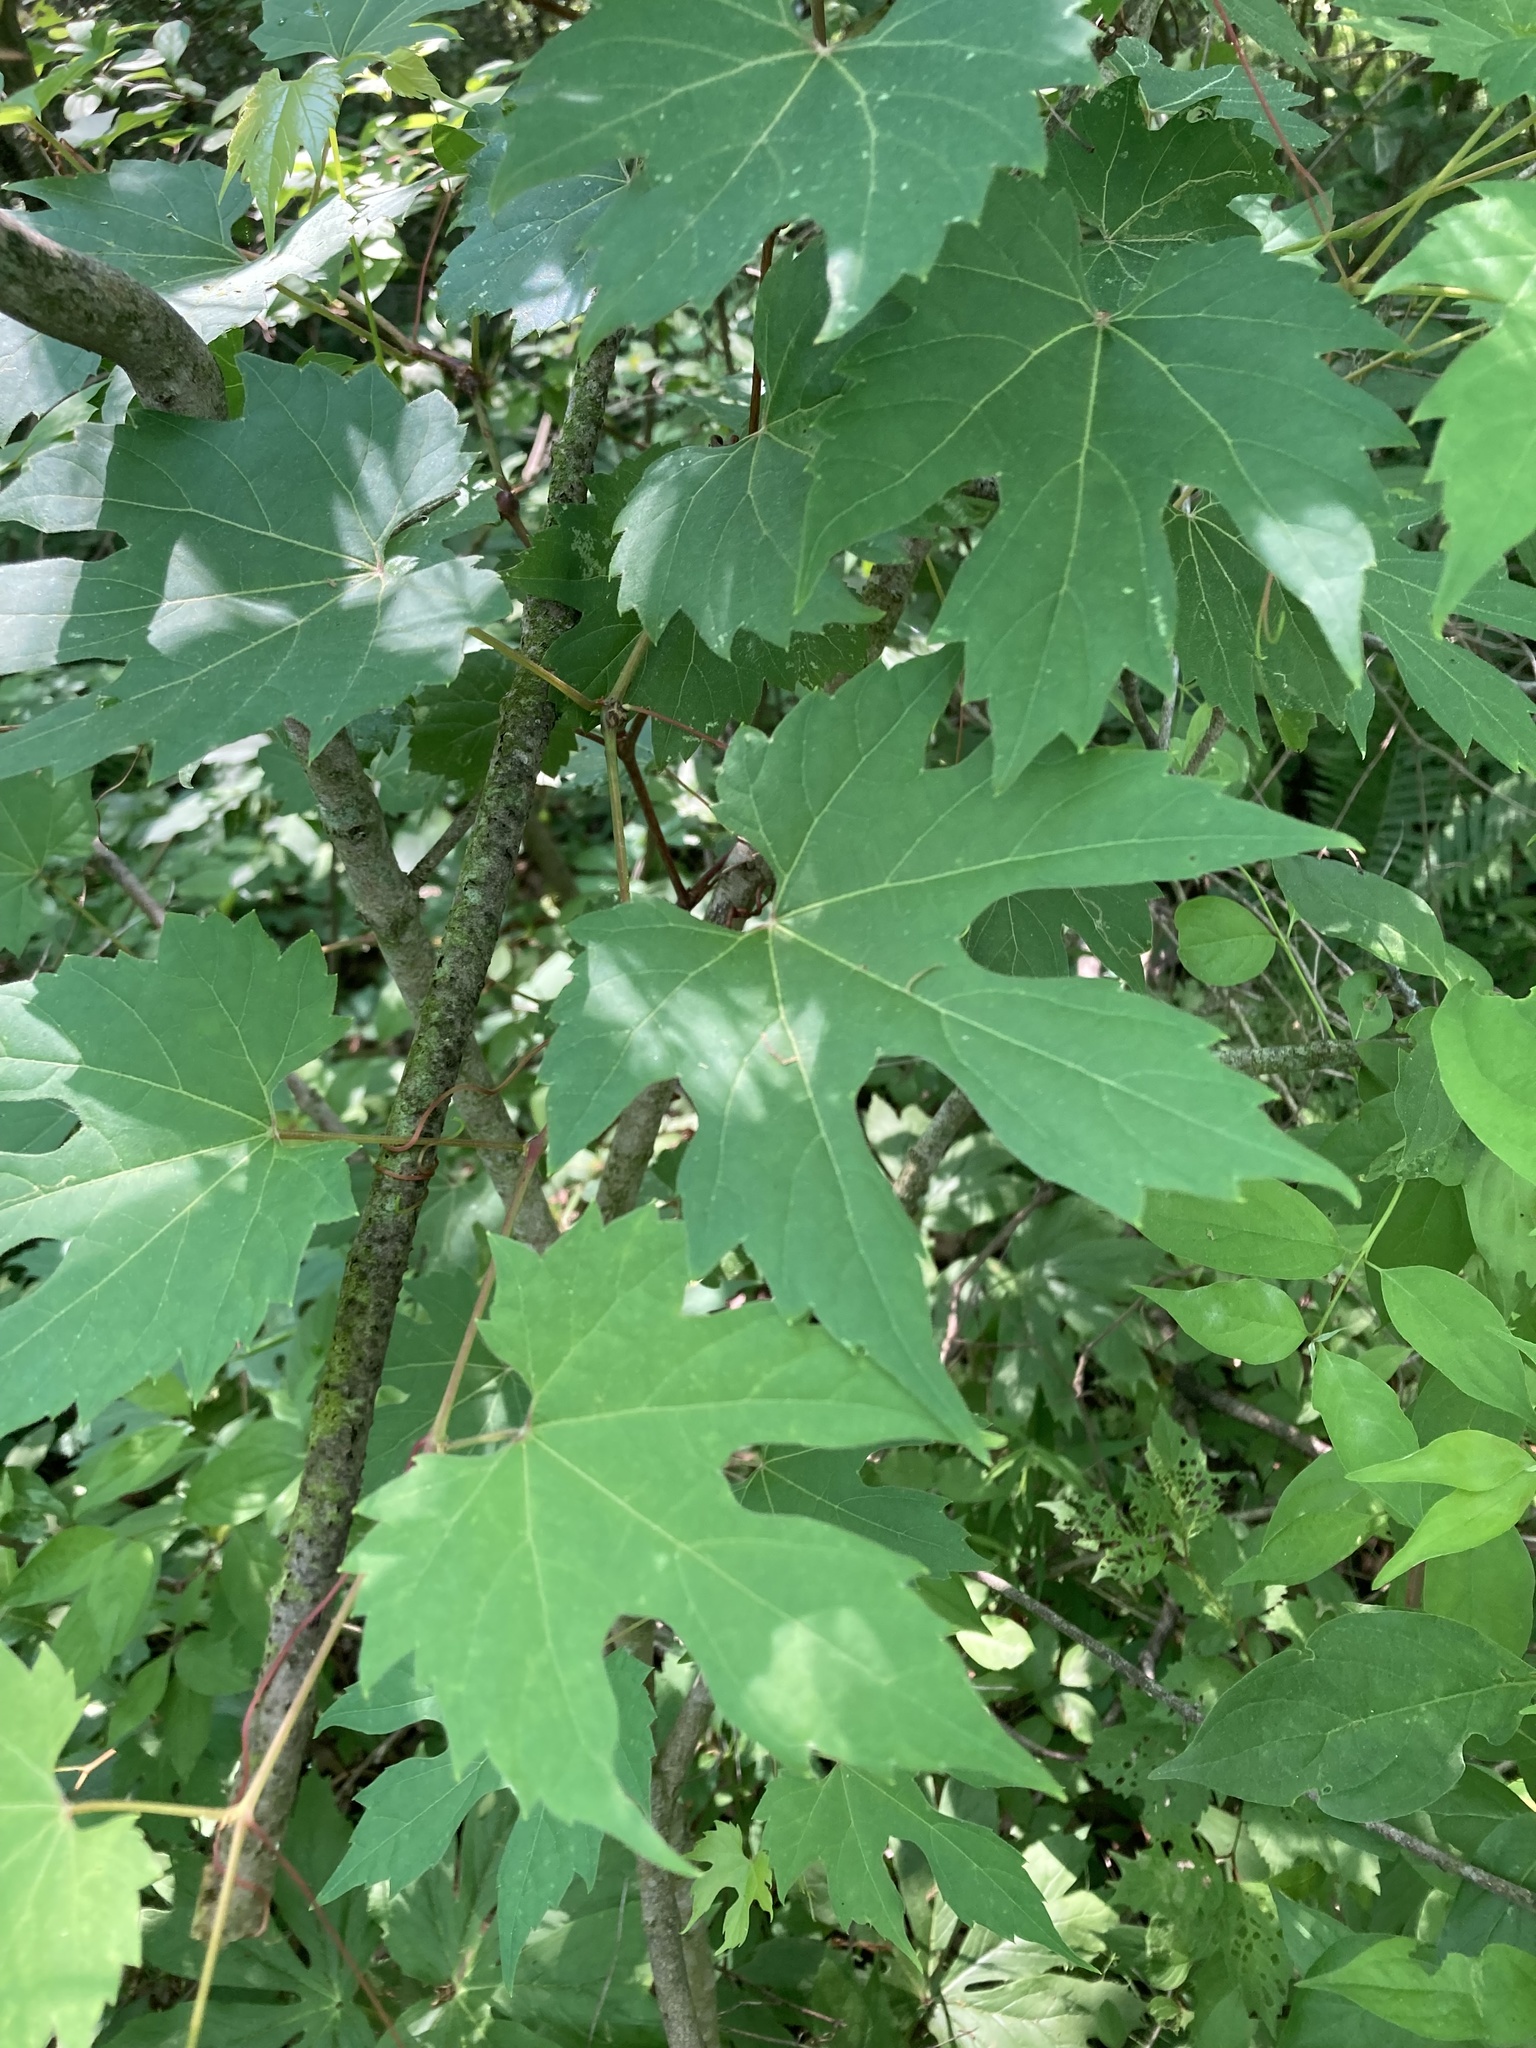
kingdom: Plantae
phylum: Tracheophyta
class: Magnoliopsida
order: Vitales
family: Vitaceae
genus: Vitis
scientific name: Vitis riparia
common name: Frost grape
